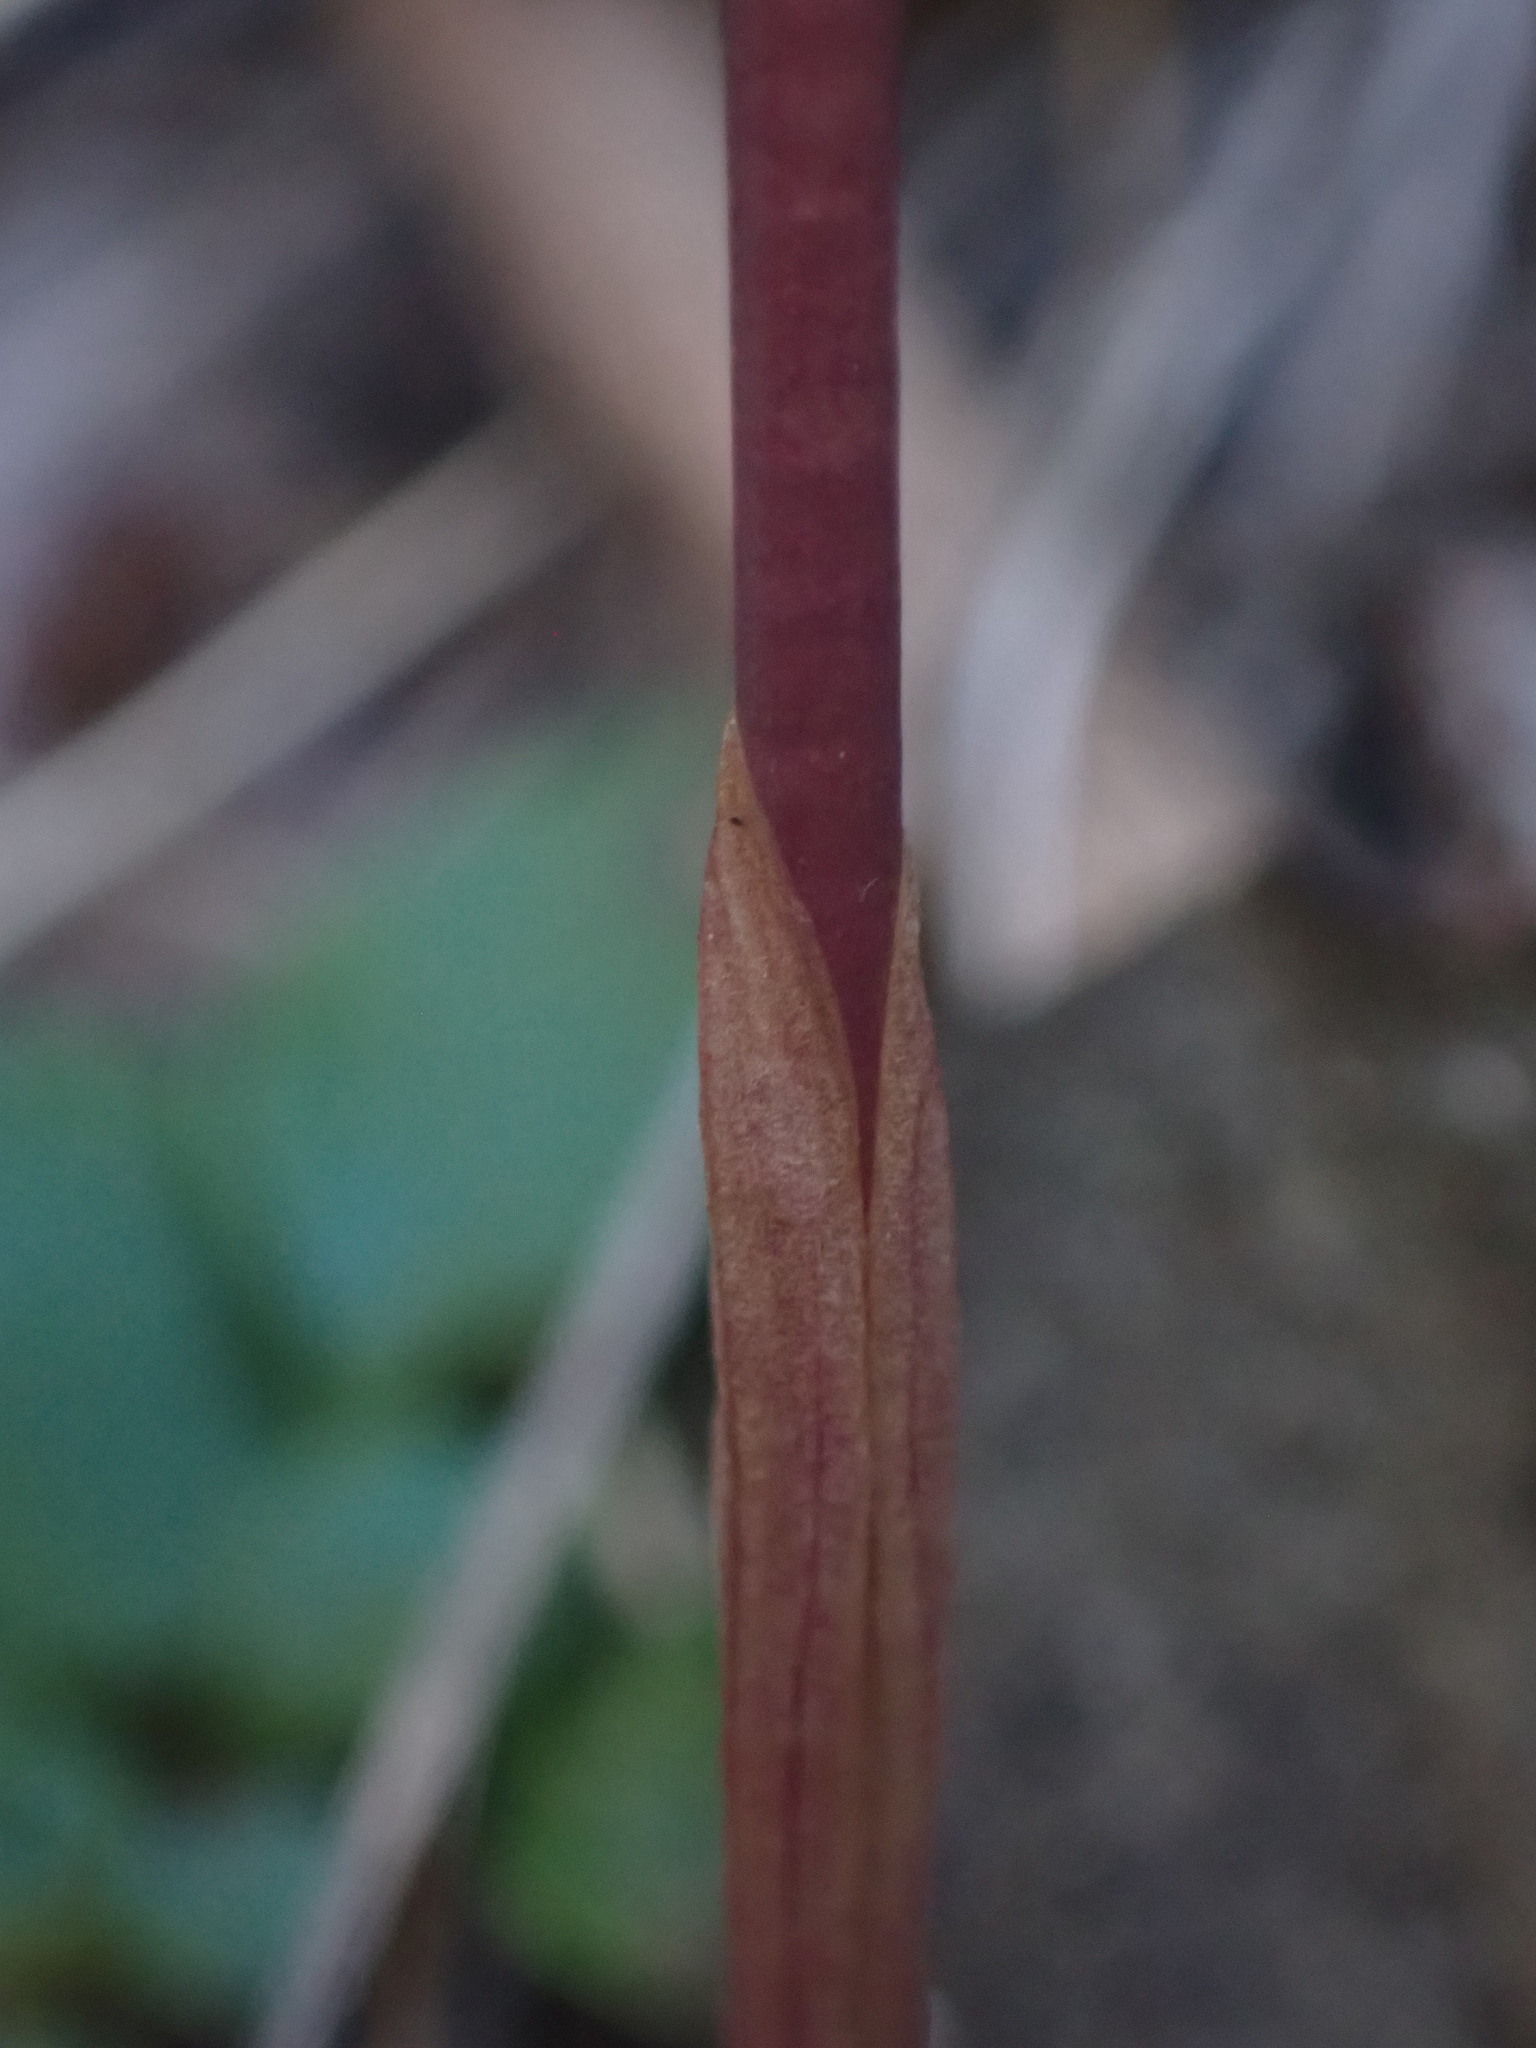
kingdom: Plantae
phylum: Tracheophyta
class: Liliopsida
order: Asparagales
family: Orchidaceae
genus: Calypso
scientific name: Calypso bulbosa
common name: Calypso
